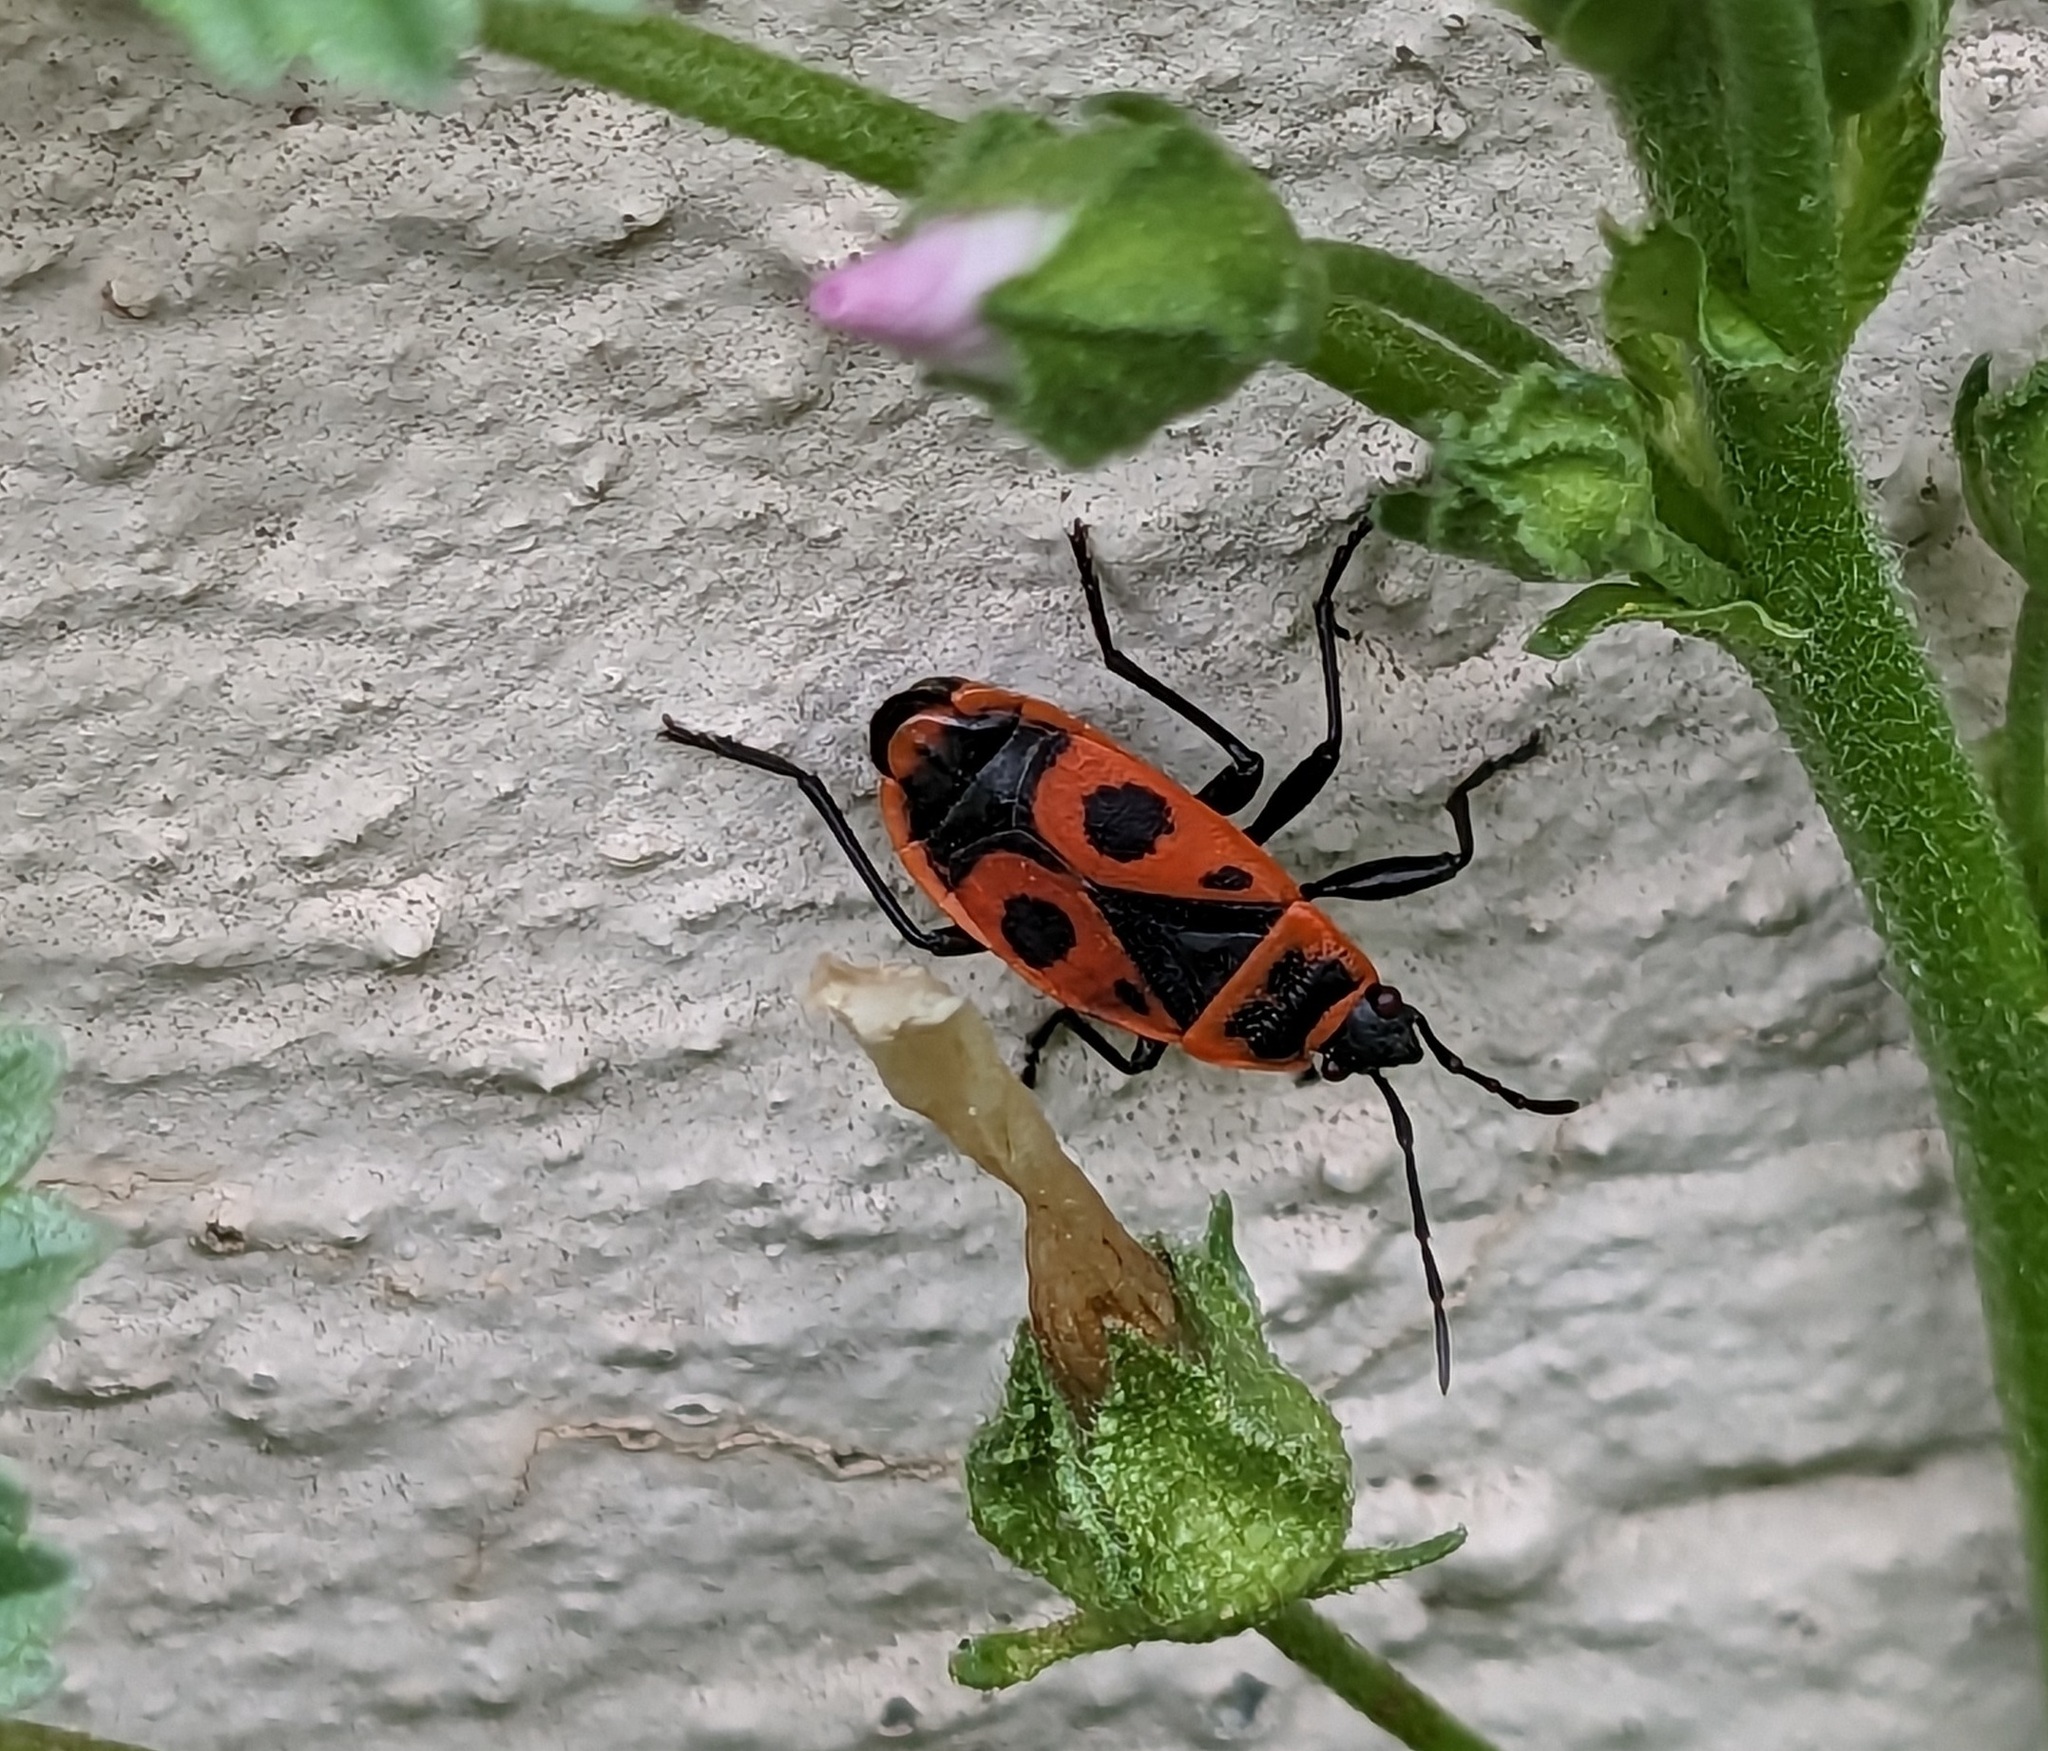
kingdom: Animalia
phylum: Arthropoda
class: Insecta
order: Hemiptera
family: Pyrrhocoridae
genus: Pyrrhocoris
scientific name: Pyrrhocoris apterus
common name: Firebug
